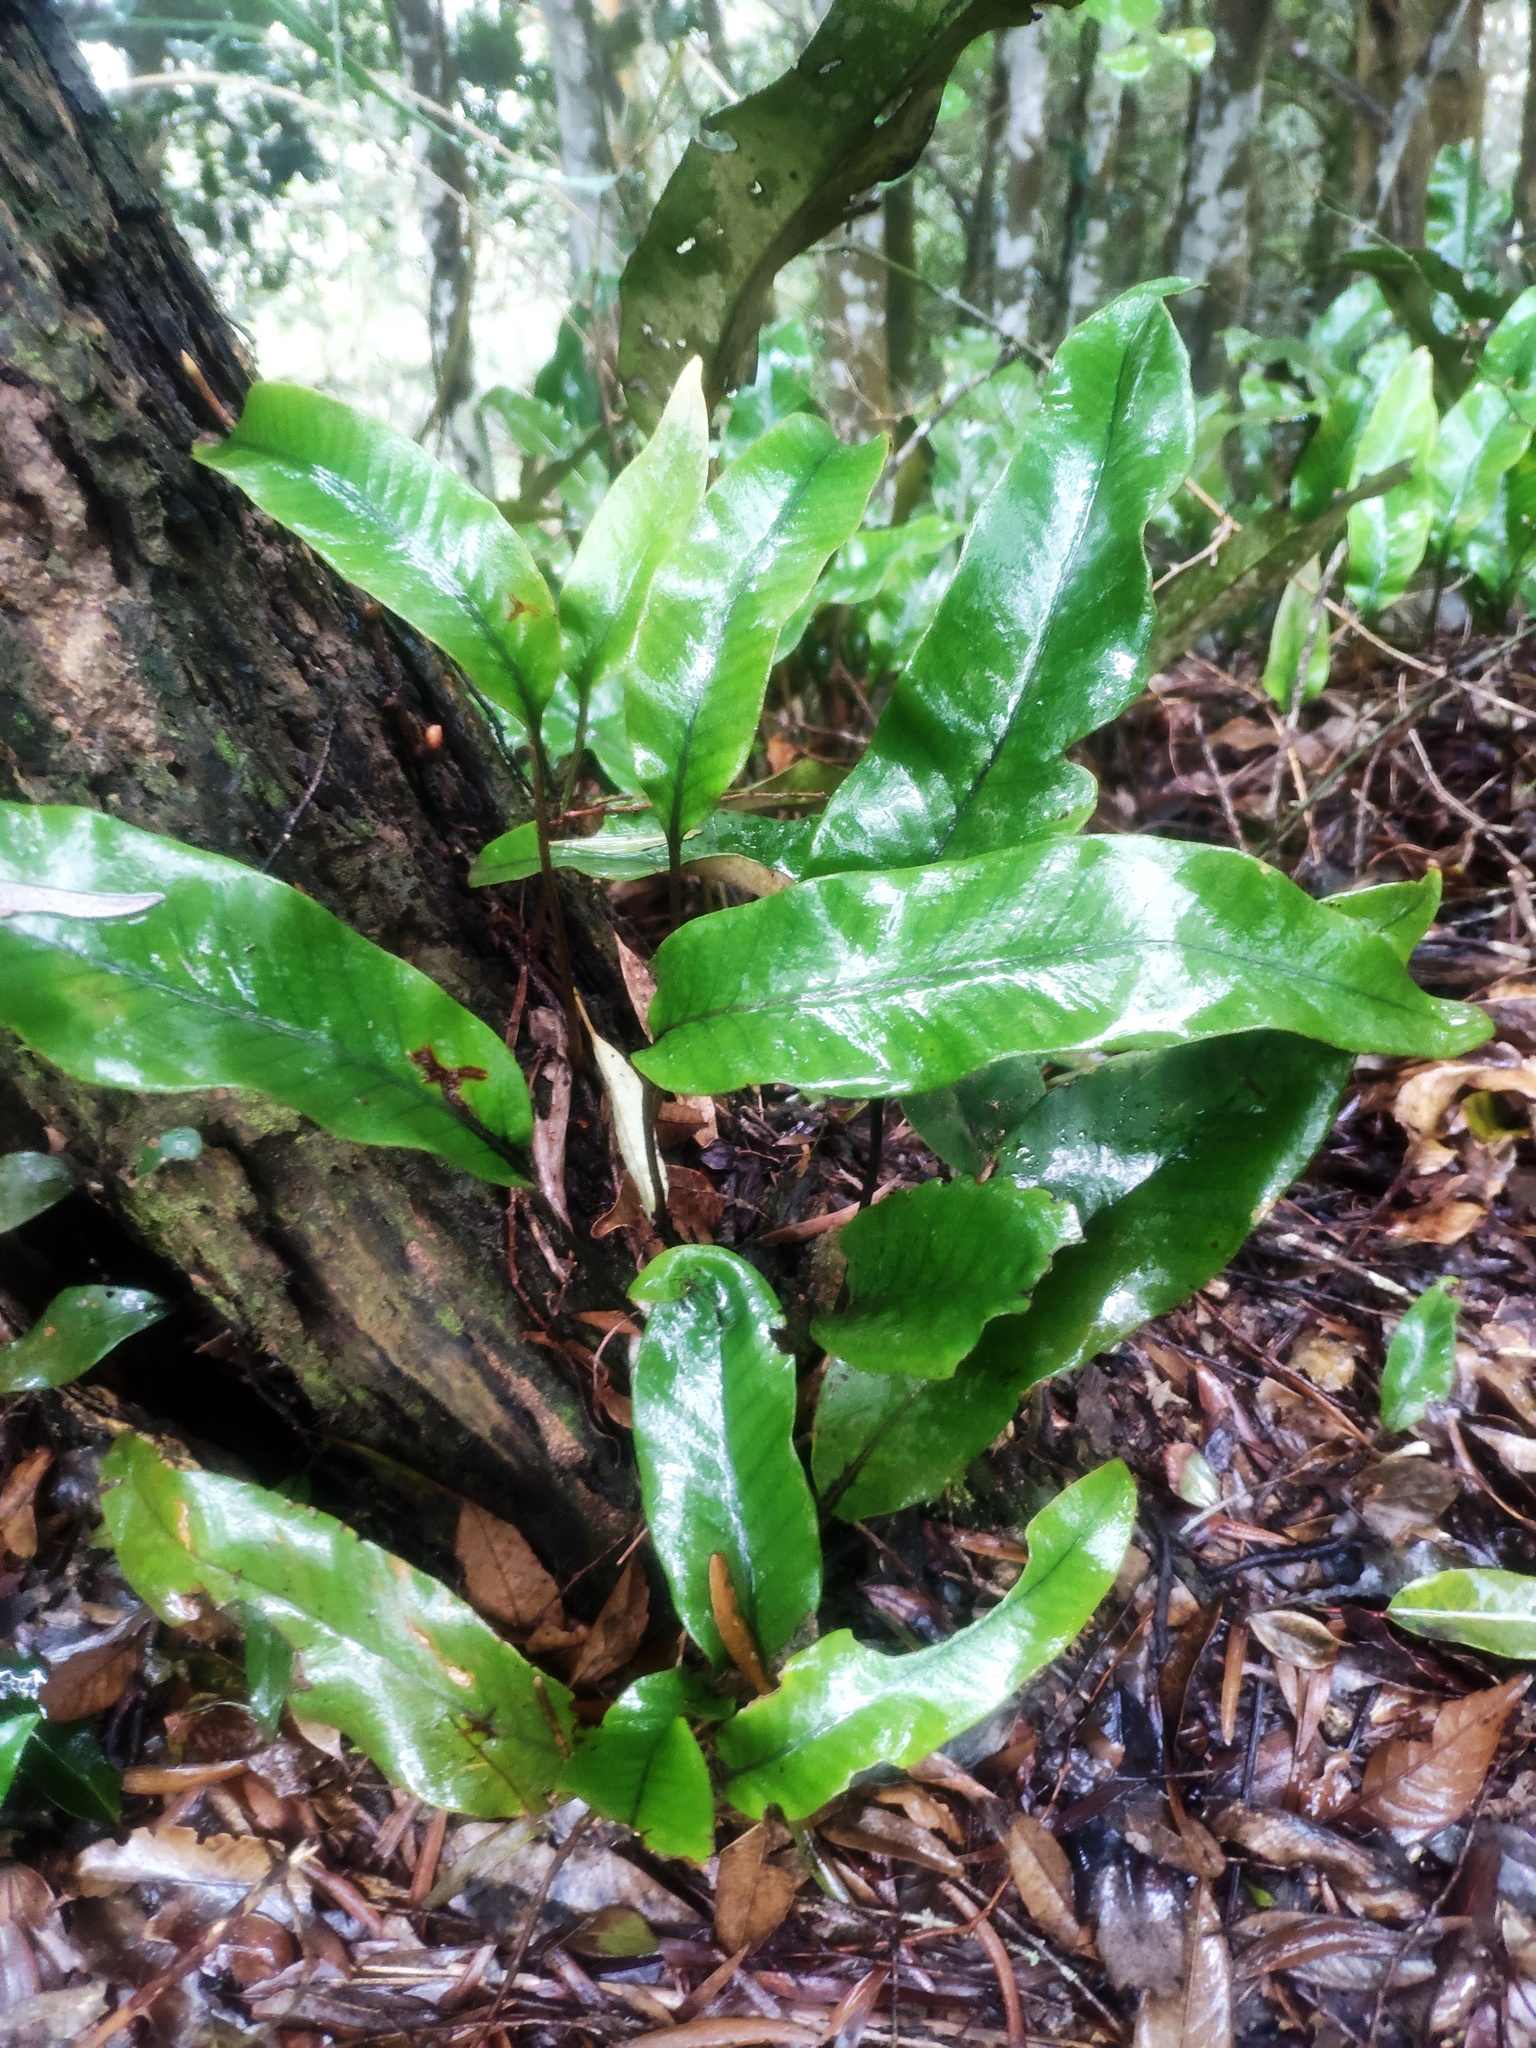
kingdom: Plantae
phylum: Tracheophyta
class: Polypodiopsida
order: Polypodiales
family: Polypodiaceae
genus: Pyrrosia
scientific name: Pyrrosia lingua
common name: Felt fern
